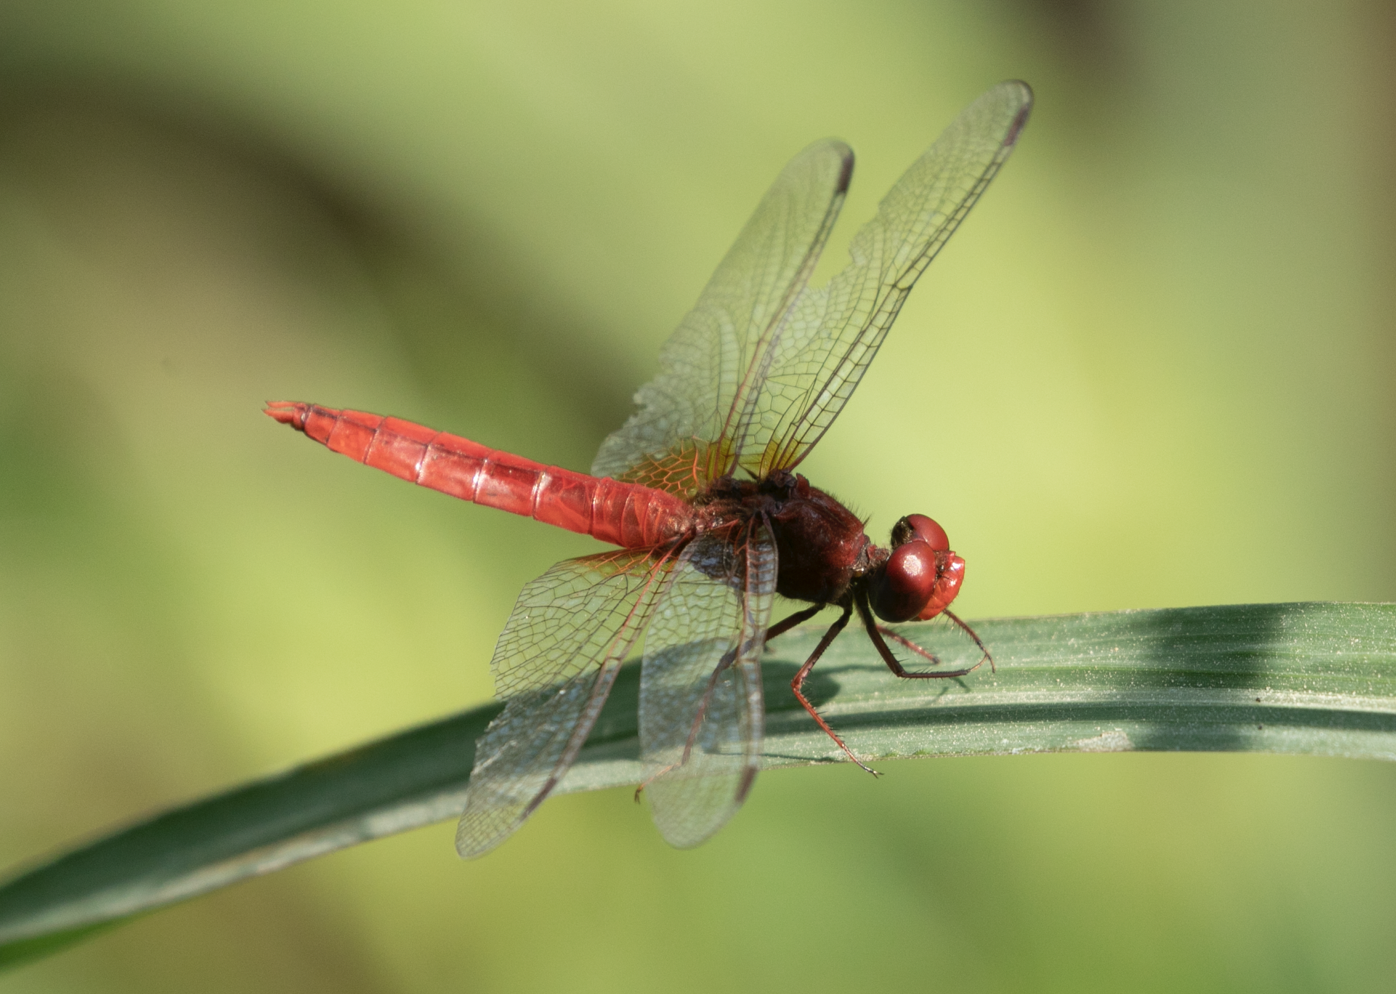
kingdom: Animalia
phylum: Arthropoda
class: Insecta
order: Odonata
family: Libellulidae
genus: Crocothemis
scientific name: Crocothemis erythraea
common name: Scarlet dragonfly
